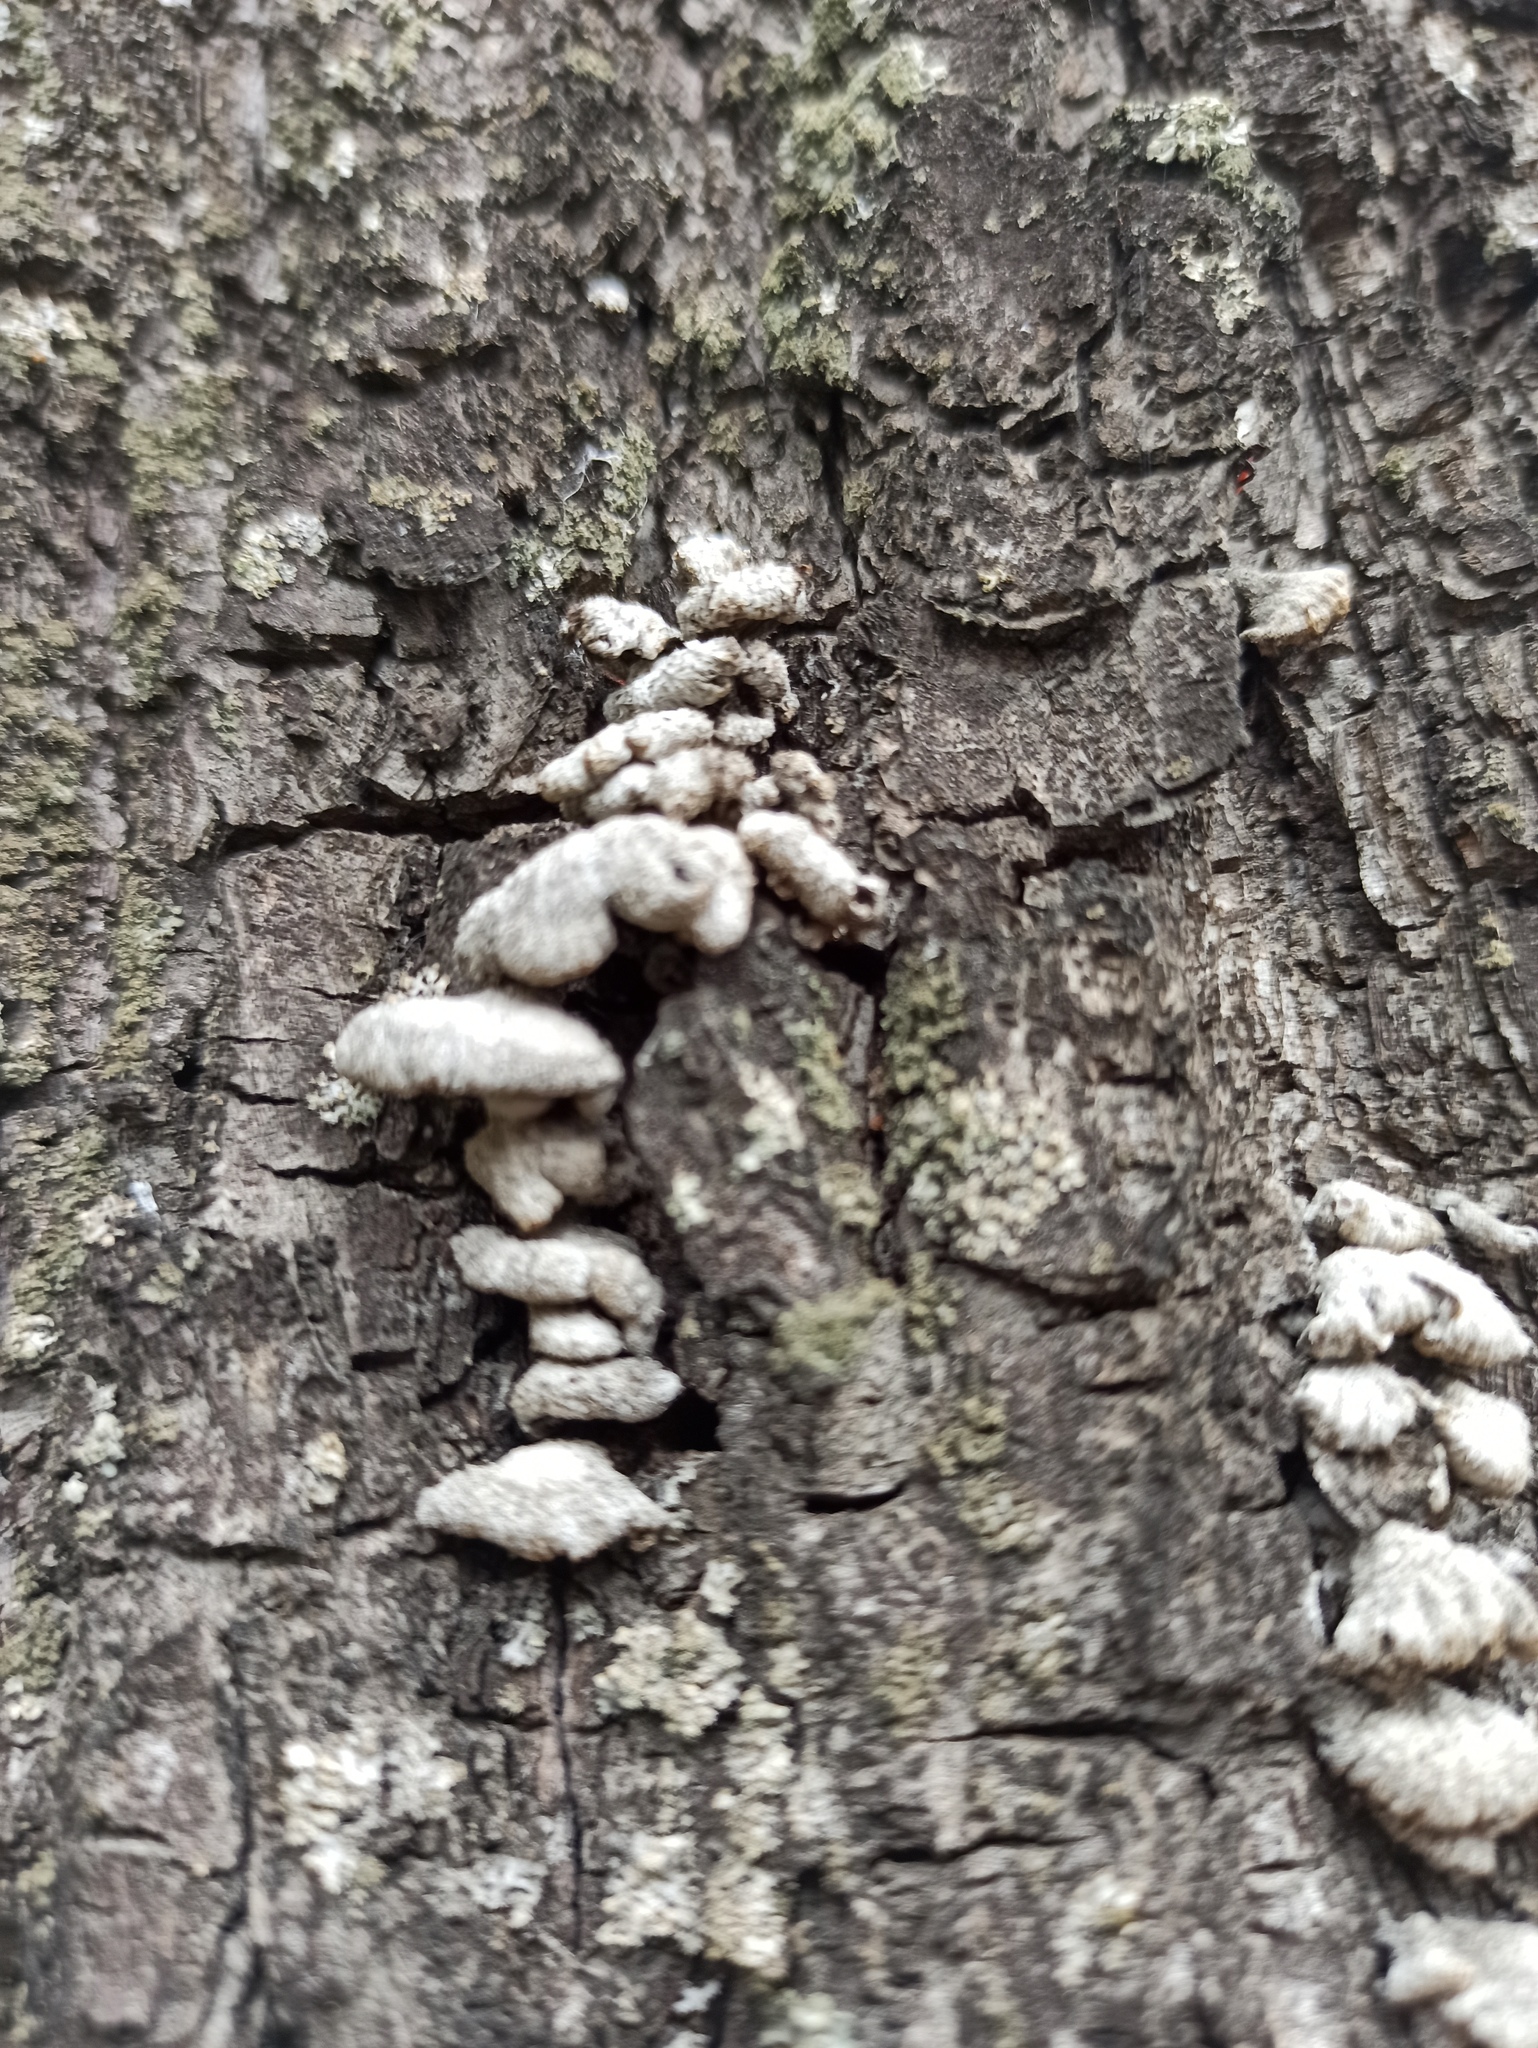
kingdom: Fungi
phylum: Basidiomycota
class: Agaricomycetes
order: Agaricales
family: Schizophyllaceae
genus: Schizophyllum
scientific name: Schizophyllum commune
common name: Common porecrust
